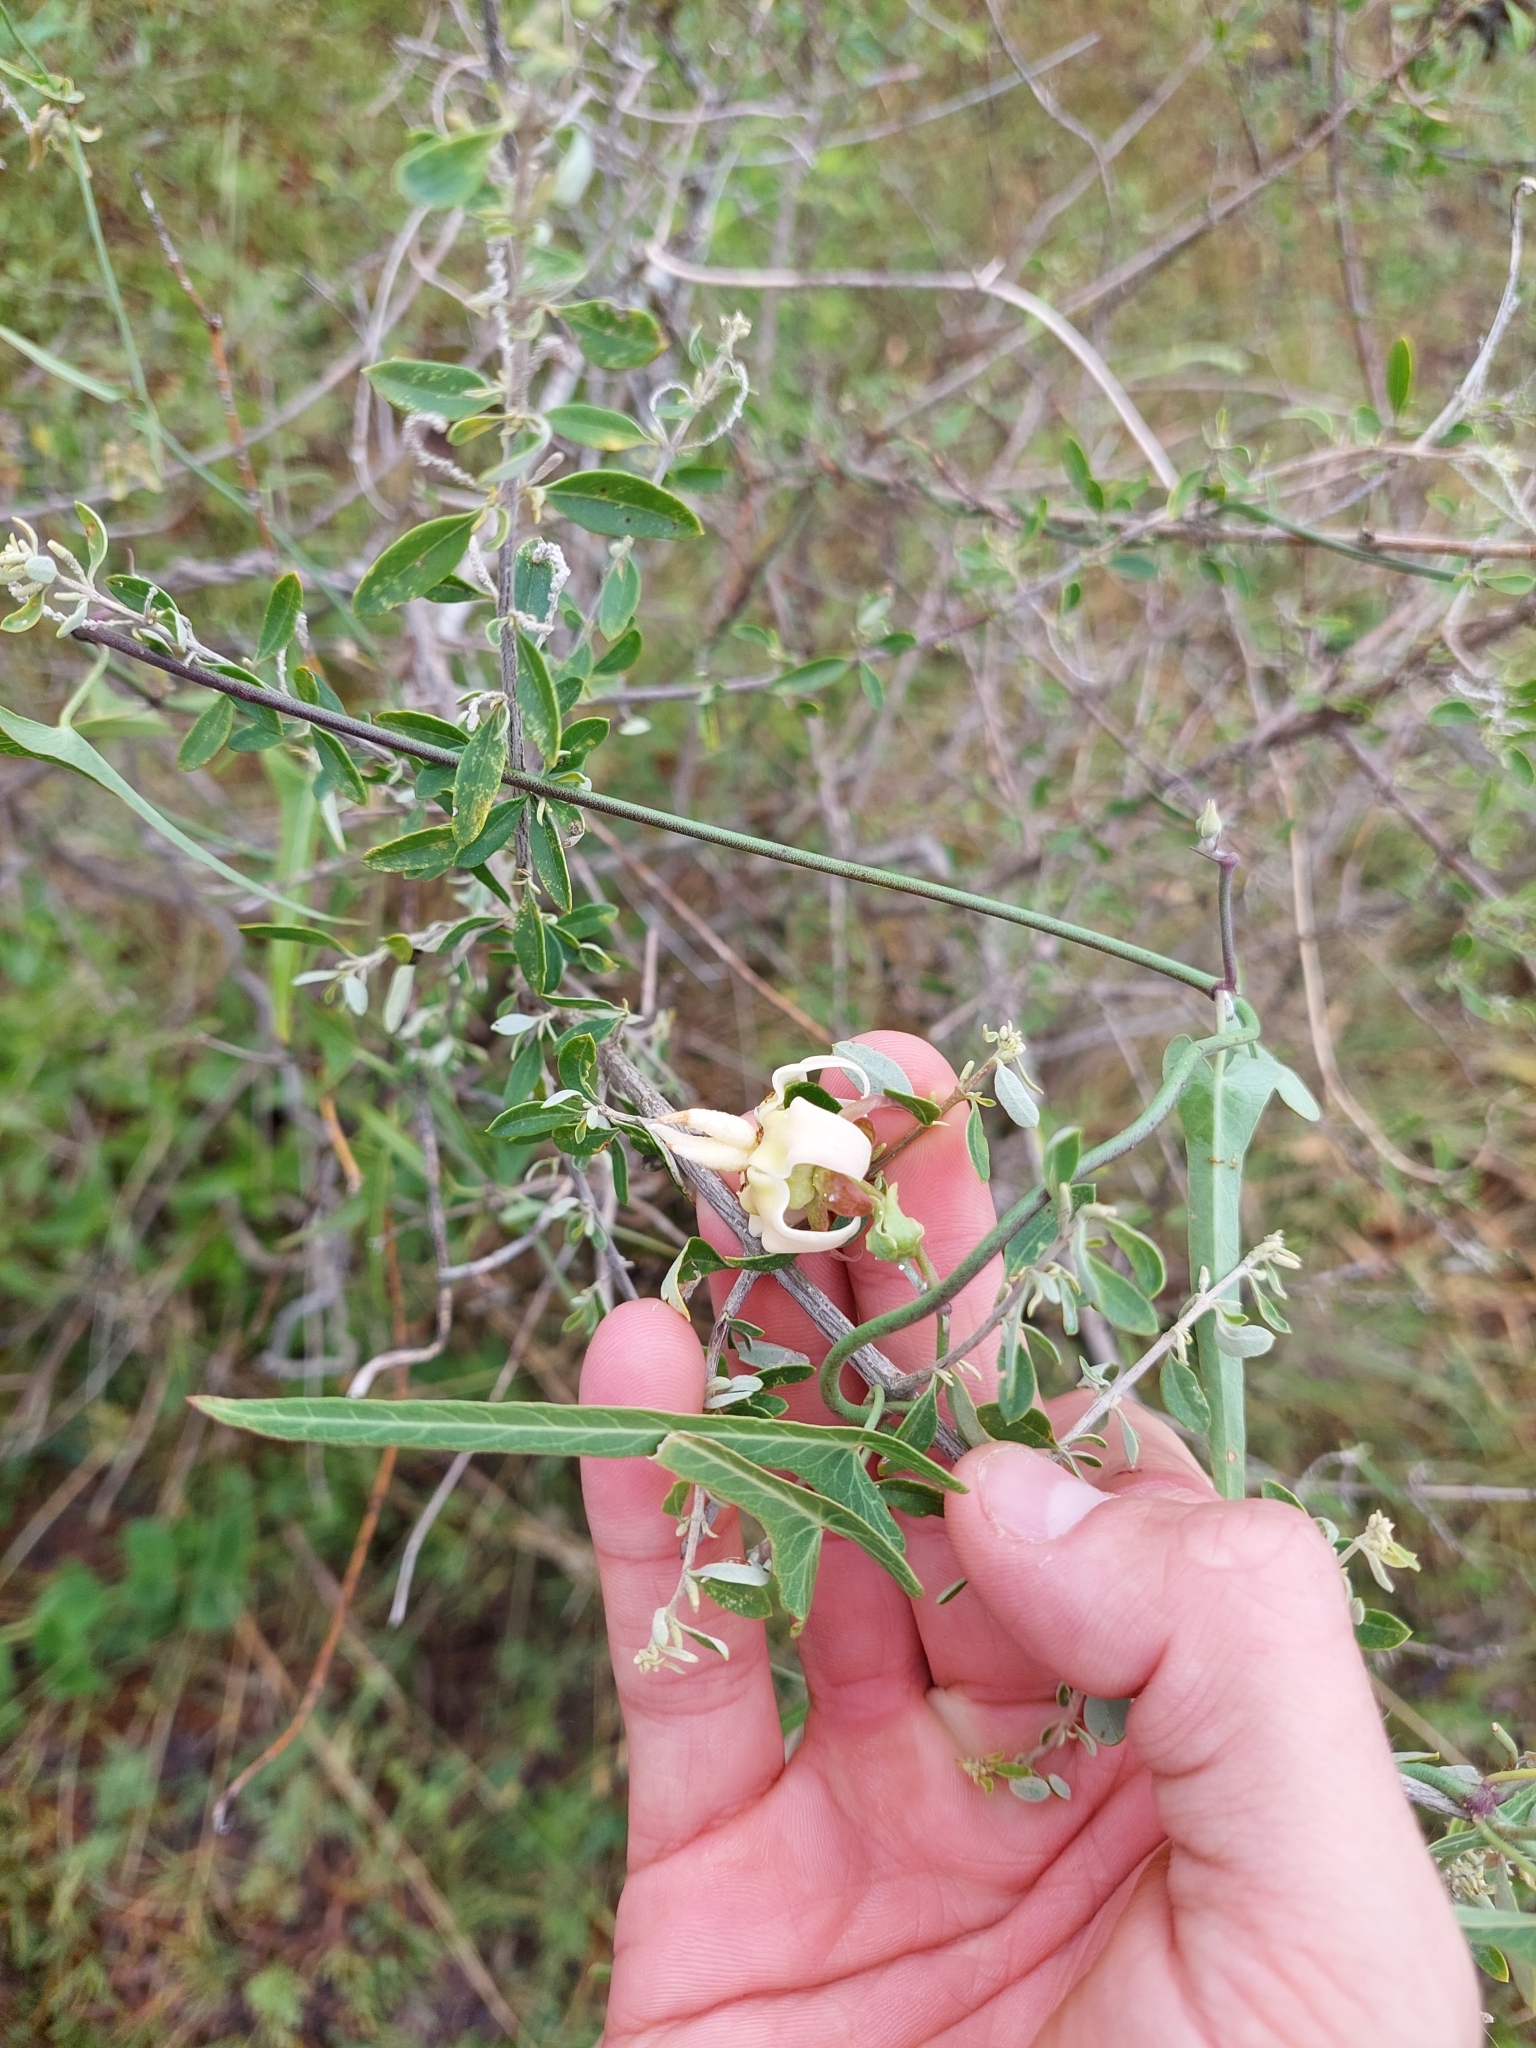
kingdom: Plantae
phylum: Tracheophyta
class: Magnoliopsida
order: Gentianales
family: Apocynaceae
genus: Araujia
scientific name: Araujia angustifolia
